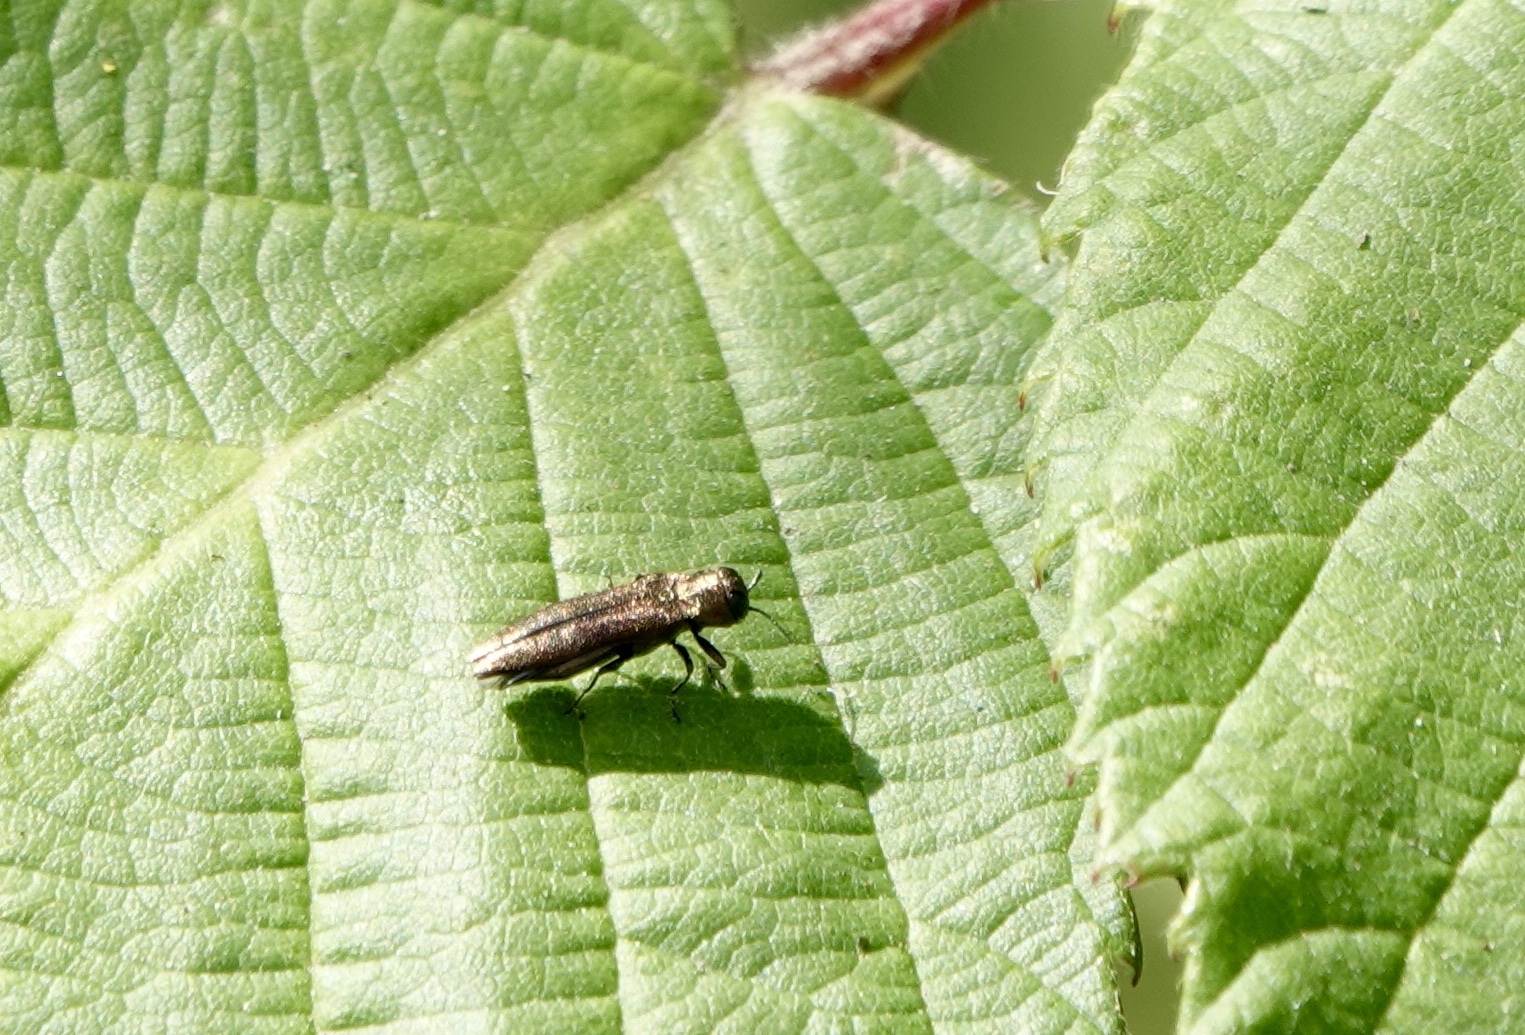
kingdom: Animalia
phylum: Arthropoda
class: Insecta
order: Coleoptera
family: Buprestidae
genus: Agrilus
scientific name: Agrilus cuprescens
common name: Rose stem girdler
